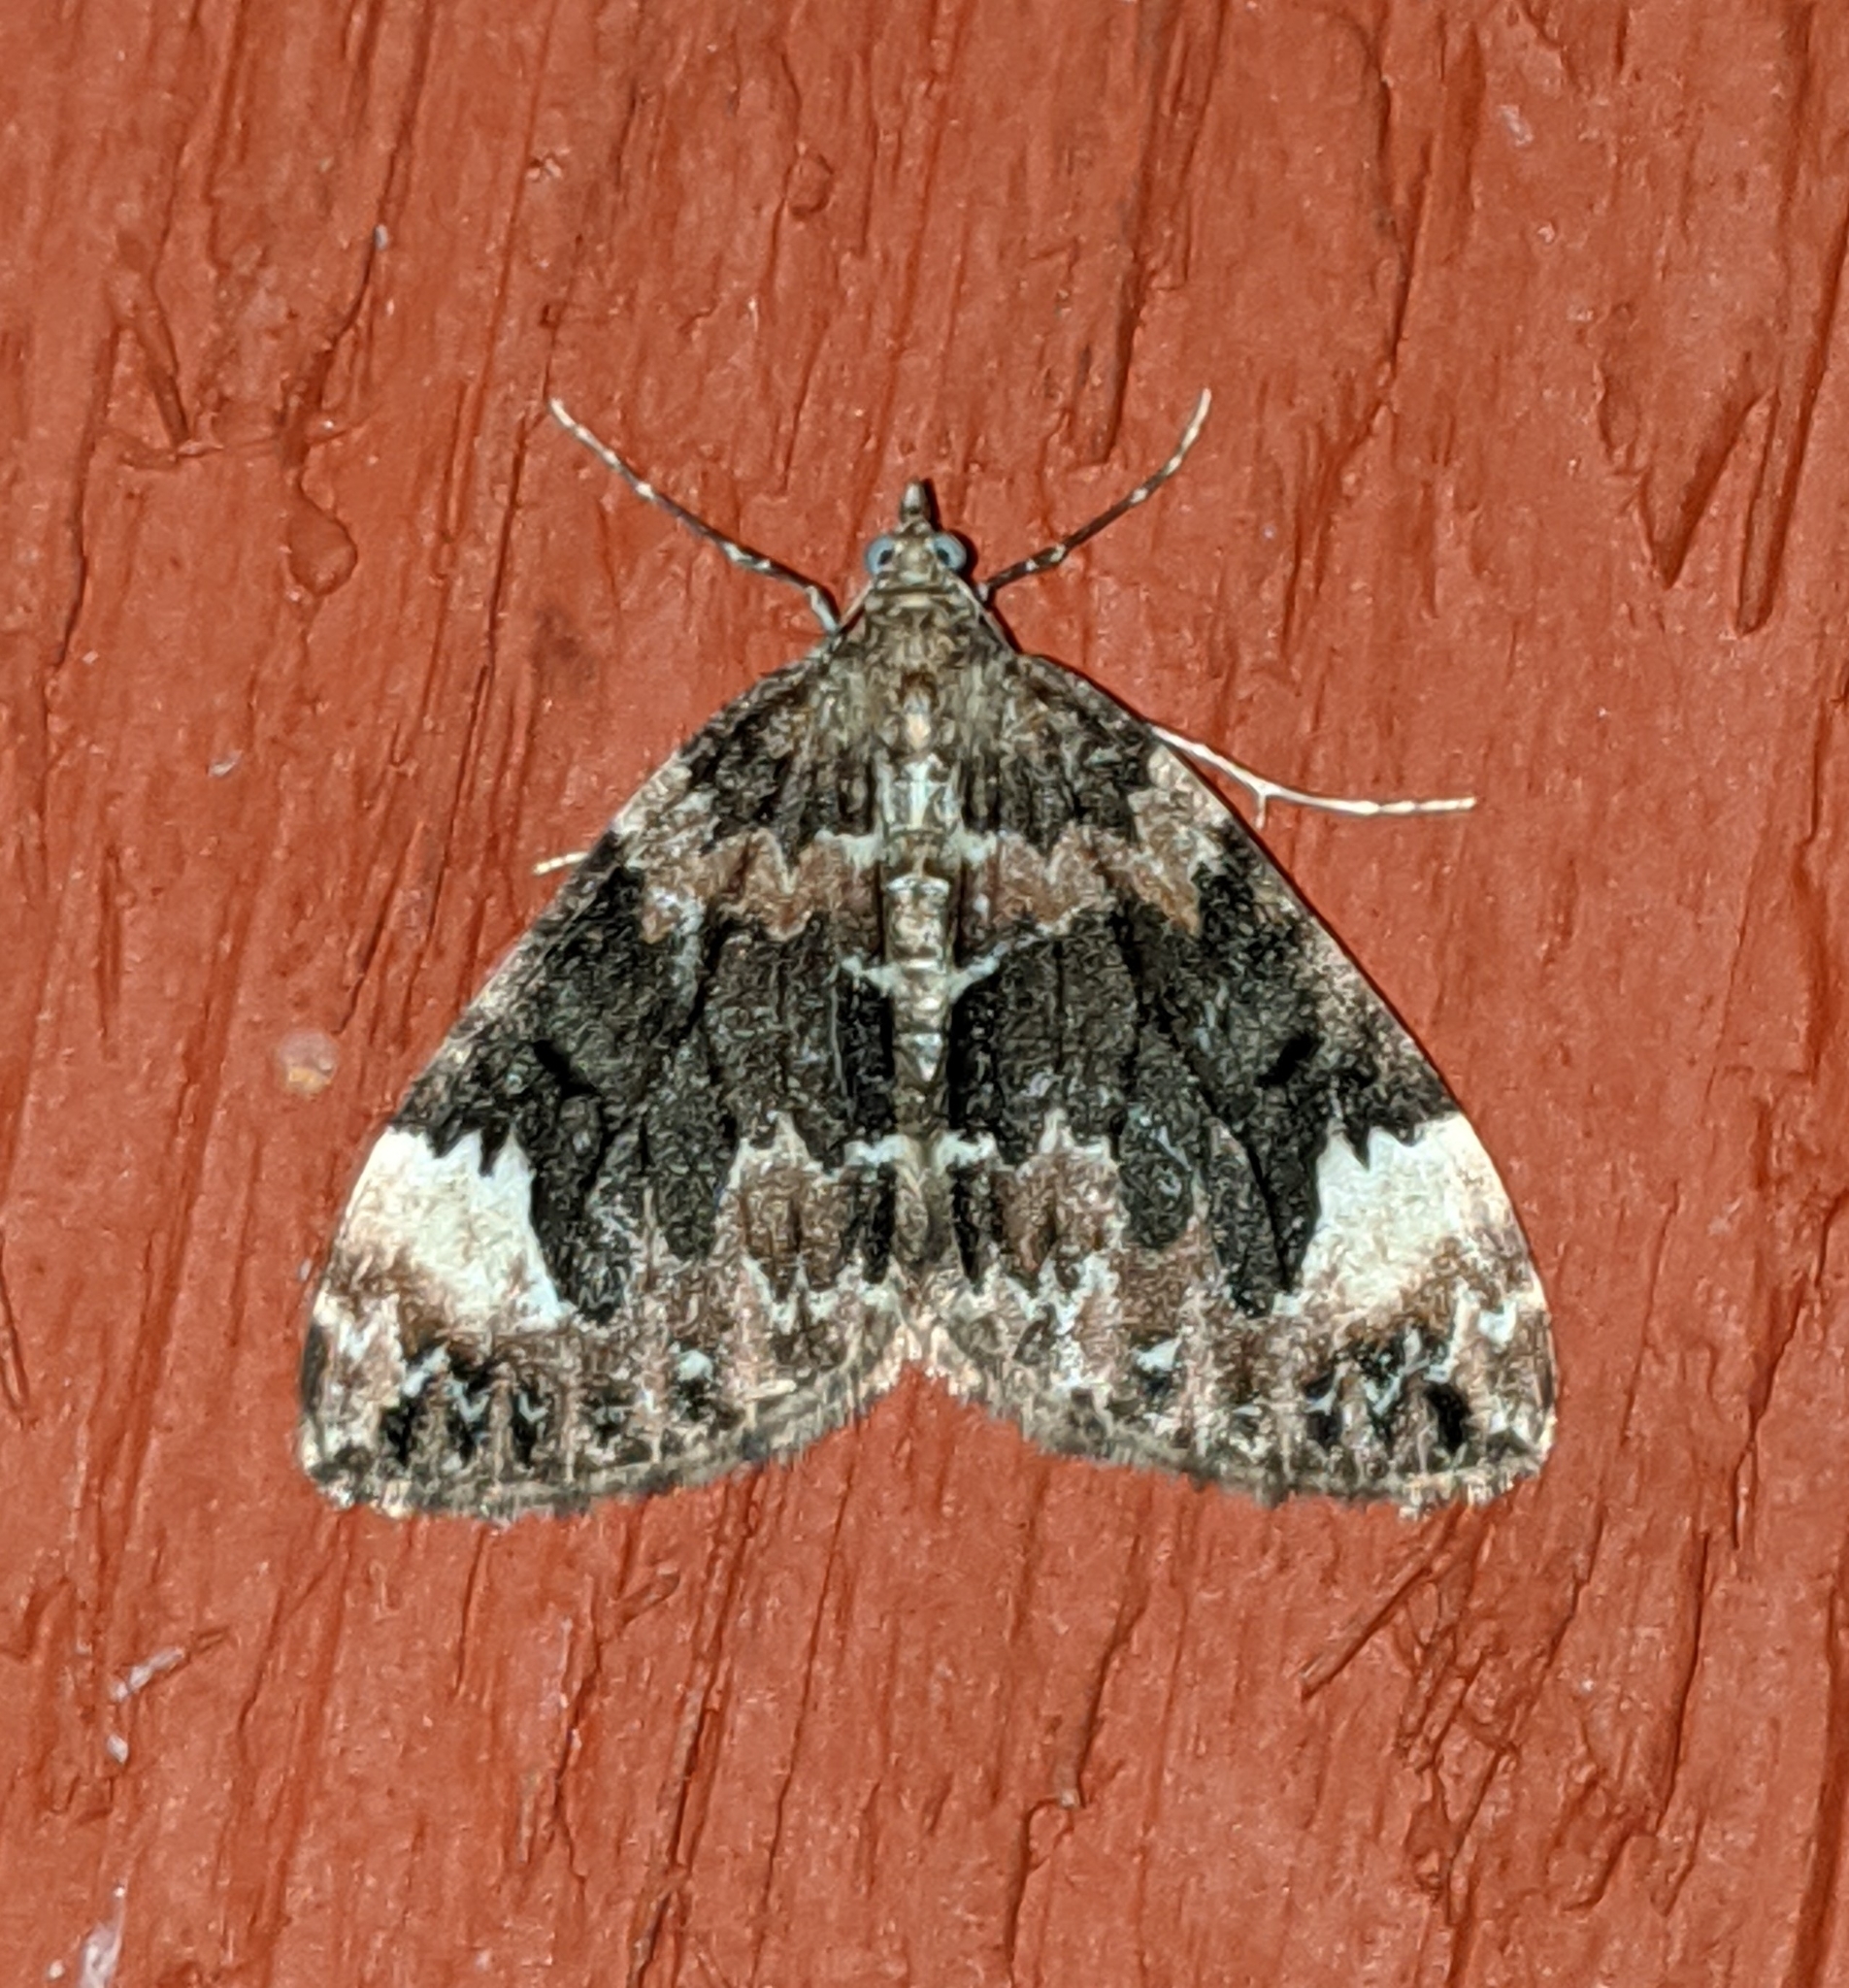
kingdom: Animalia
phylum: Arthropoda
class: Insecta
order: Lepidoptera
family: Geometridae
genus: Dysstroma
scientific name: Dysstroma citrata
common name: Dark marbled carpet
